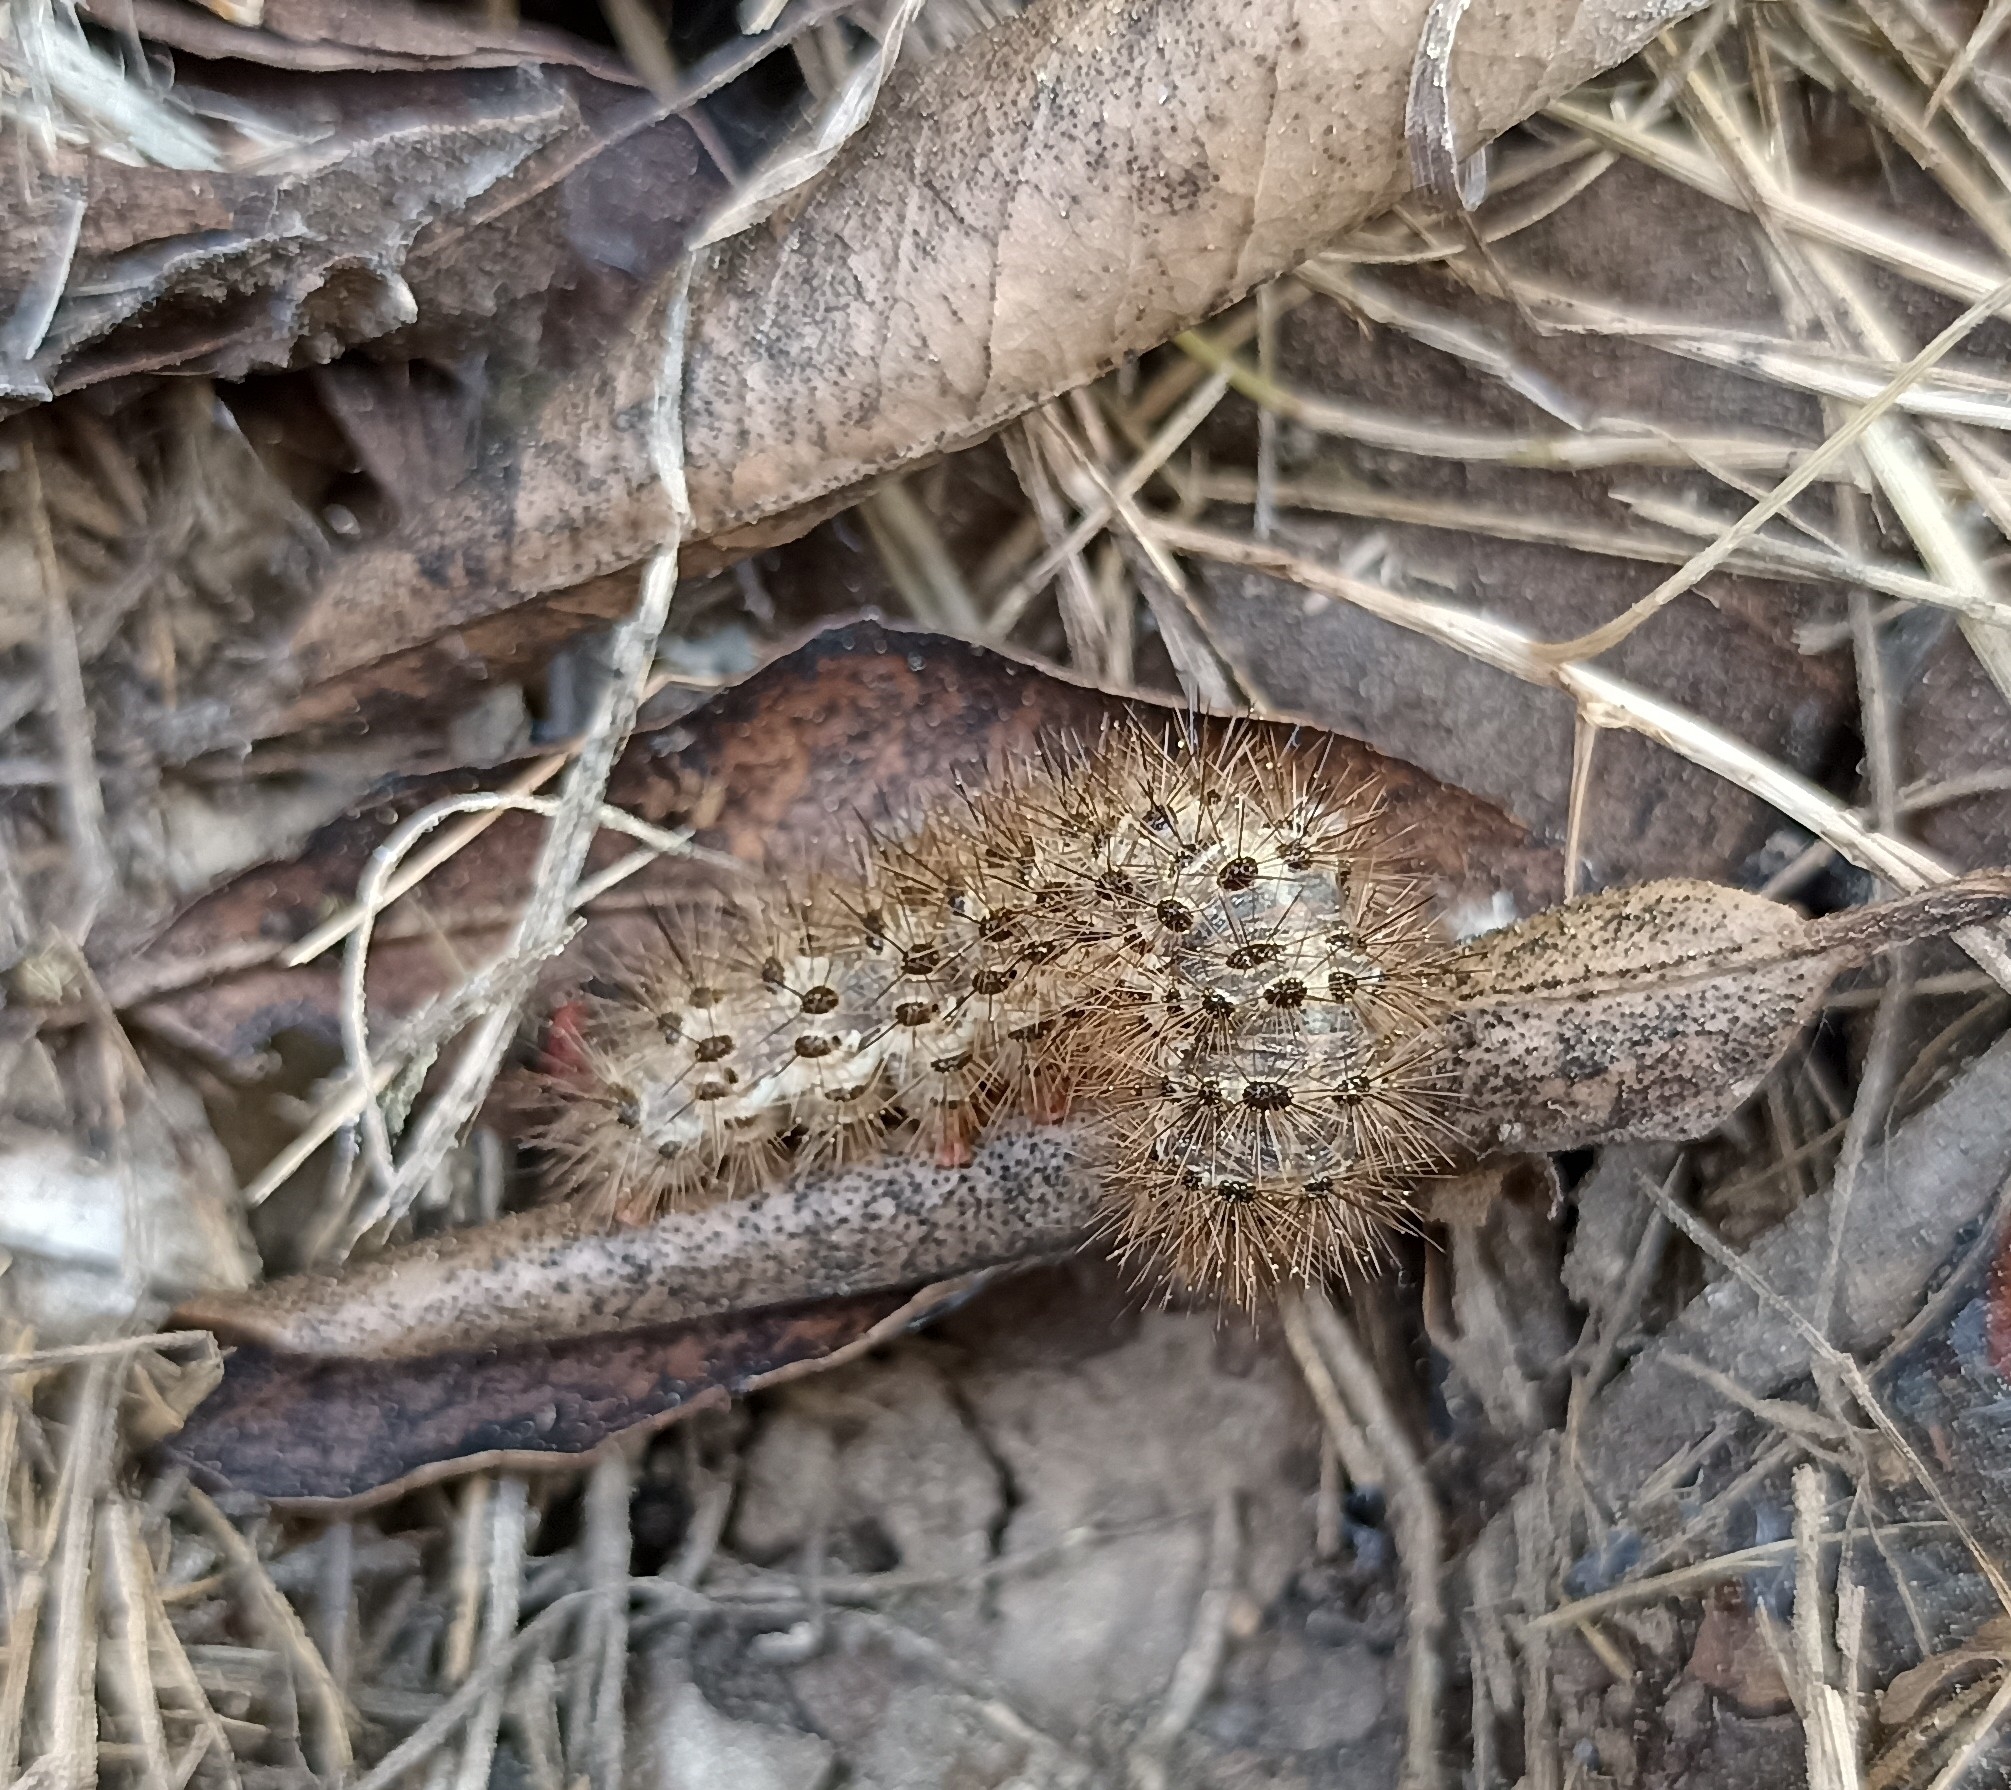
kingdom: Animalia
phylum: Arthropoda
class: Insecta
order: Lepidoptera
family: Erebidae
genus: Cymbalophora
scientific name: Cymbalophora pudica
